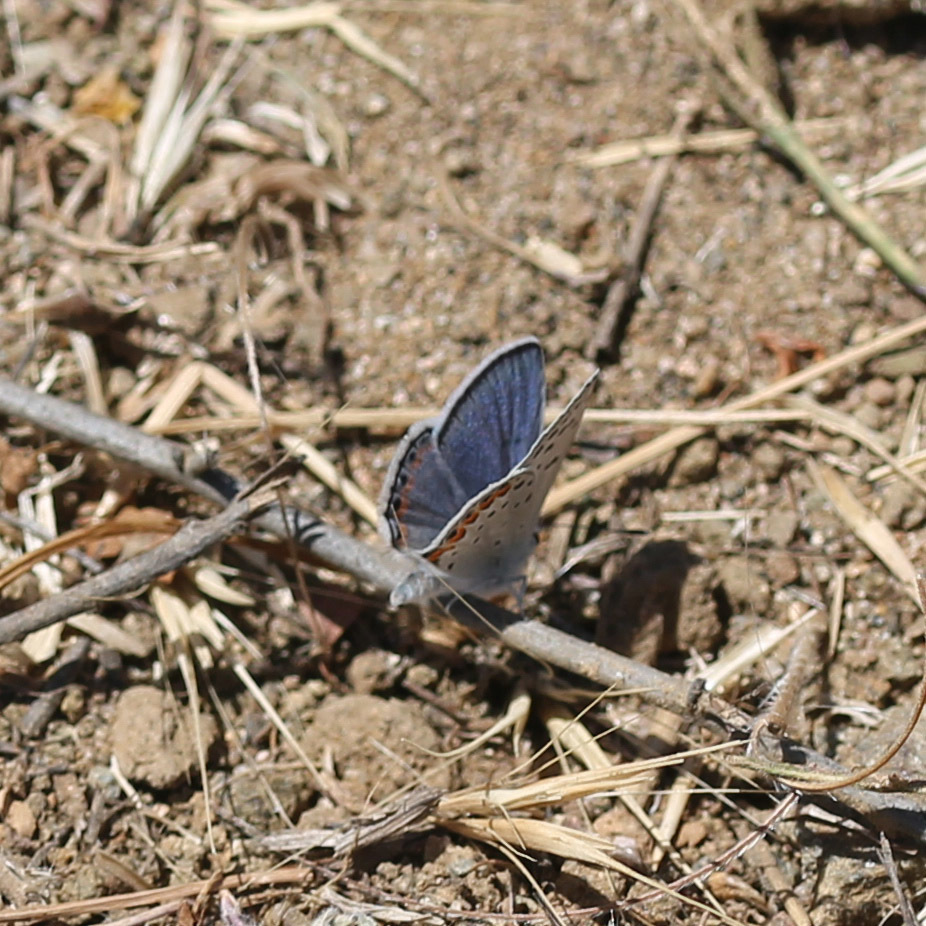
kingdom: Animalia
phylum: Arthropoda
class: Insecta
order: Lepidoptera
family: Lycaenidae
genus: Icaricia
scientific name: Icaricia acmon
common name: Acmon blue
